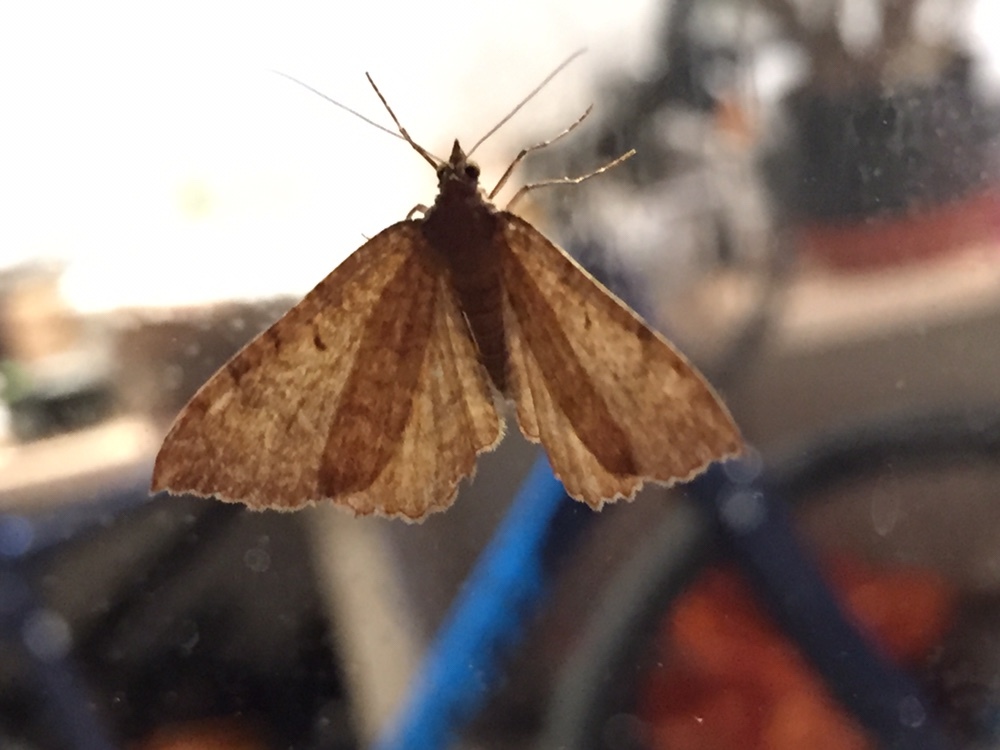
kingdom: Animalia
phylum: Arthropoda
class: Insecta
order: Lepidoptera
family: Geometridae
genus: Camptogramma
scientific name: Camptogramma bilineata
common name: Yellow shell
